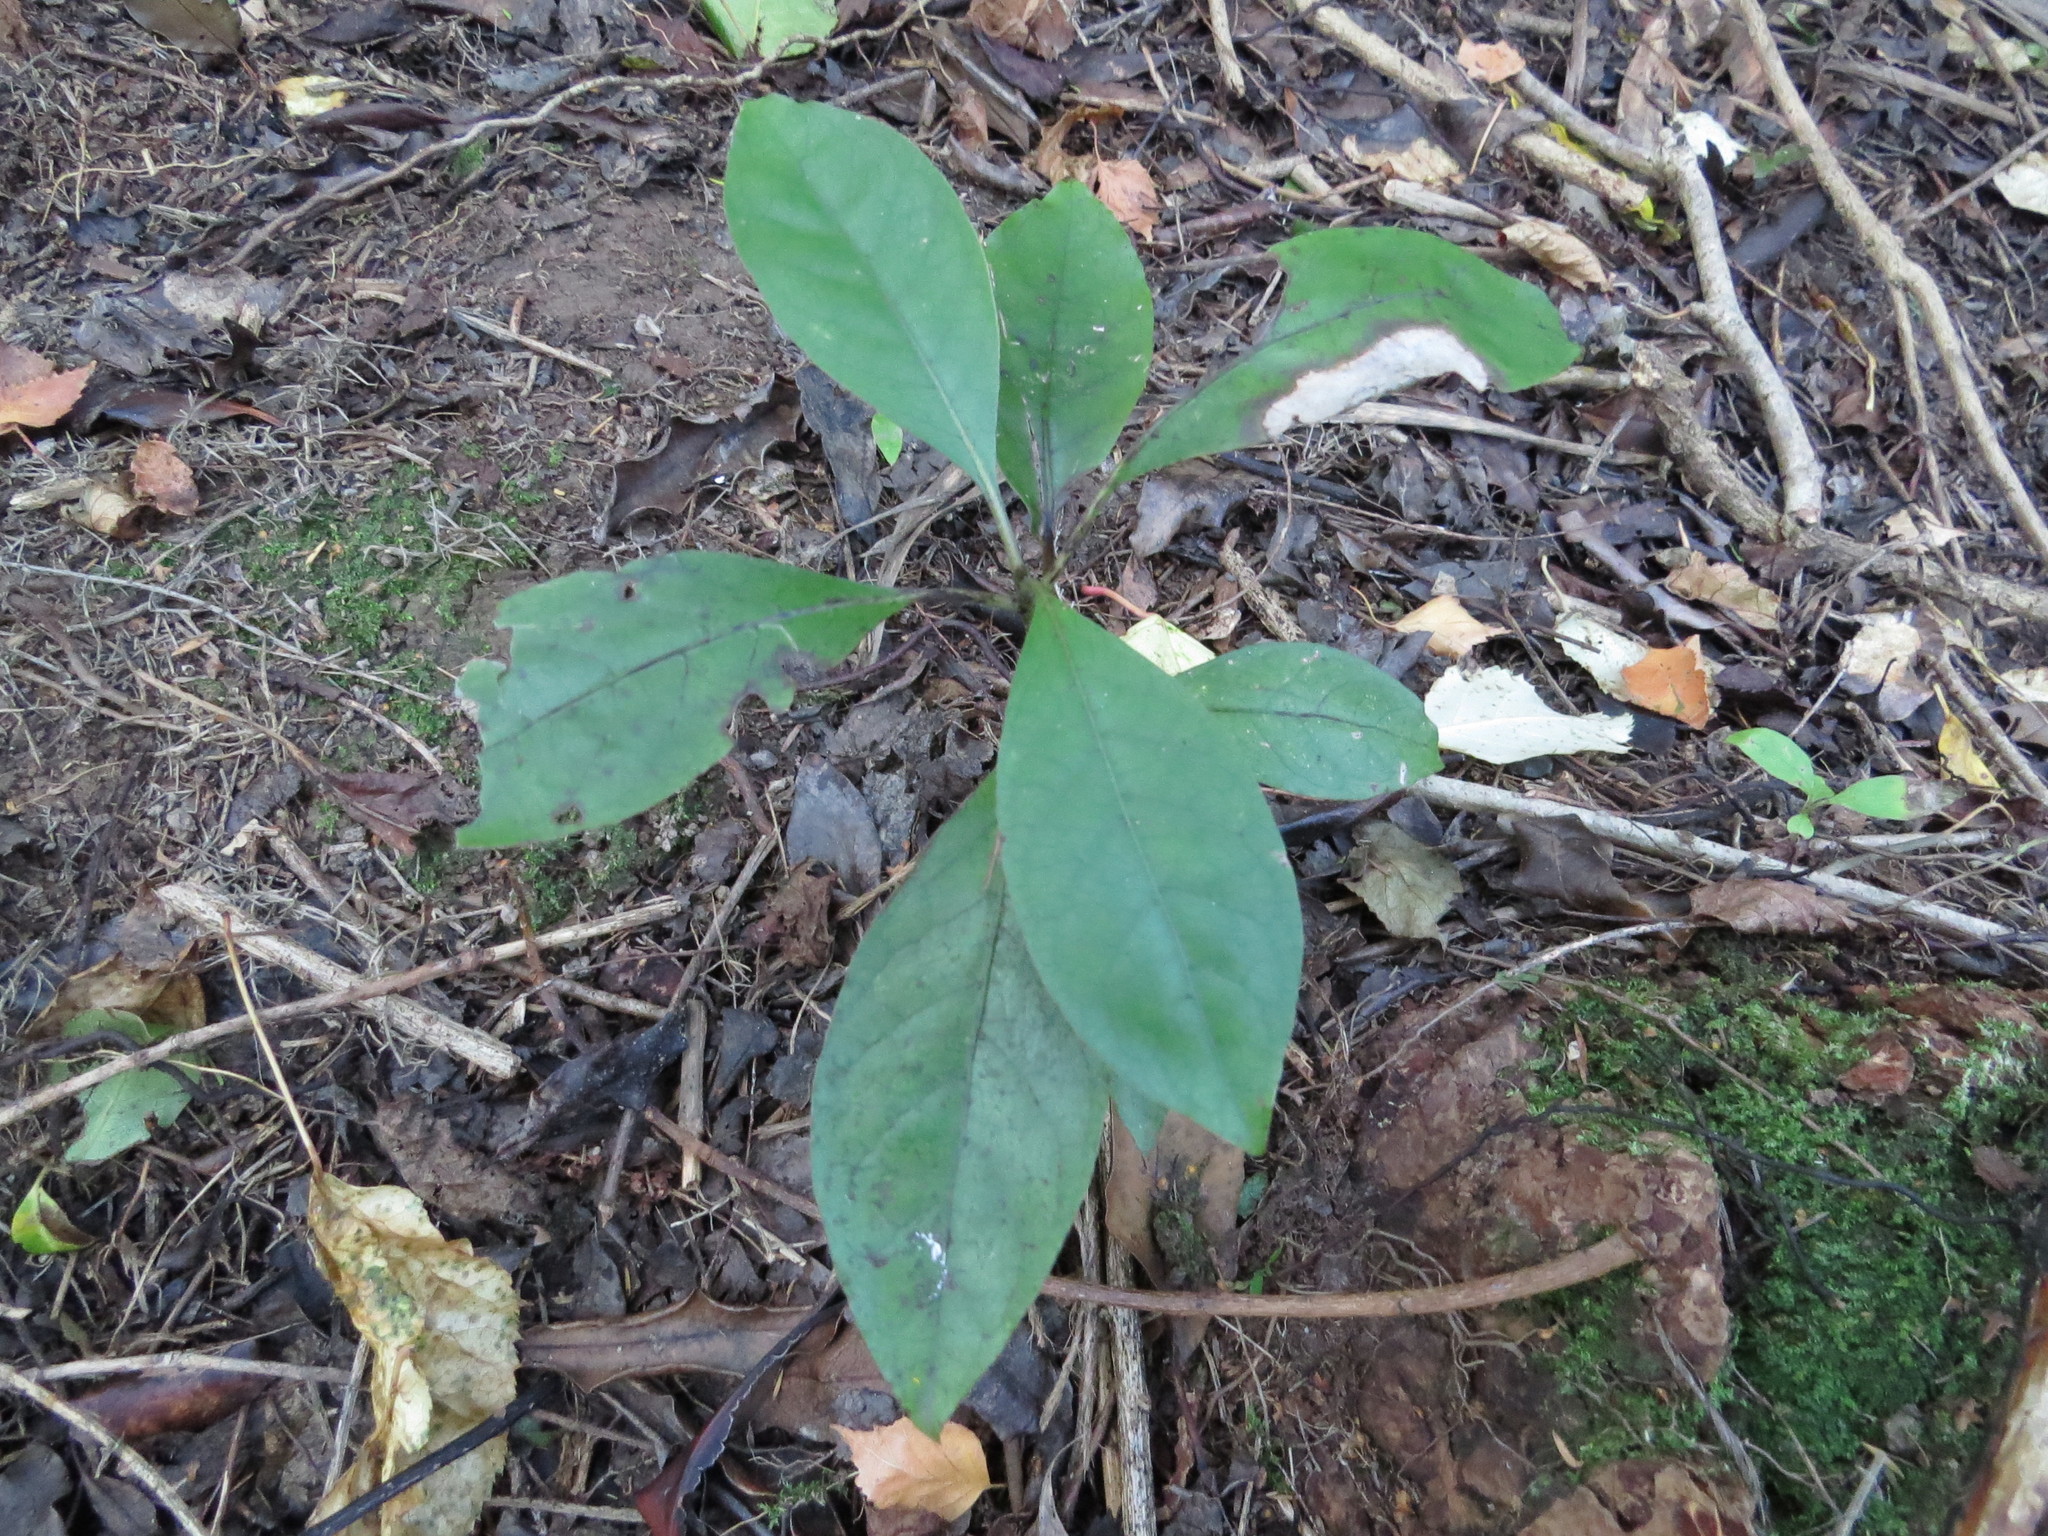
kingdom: Plantae
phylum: Tracheophyta
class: Magnoliopsida
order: Gentianales
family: Rubiaceae
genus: Coprosma
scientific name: Coprosma autumnalis
